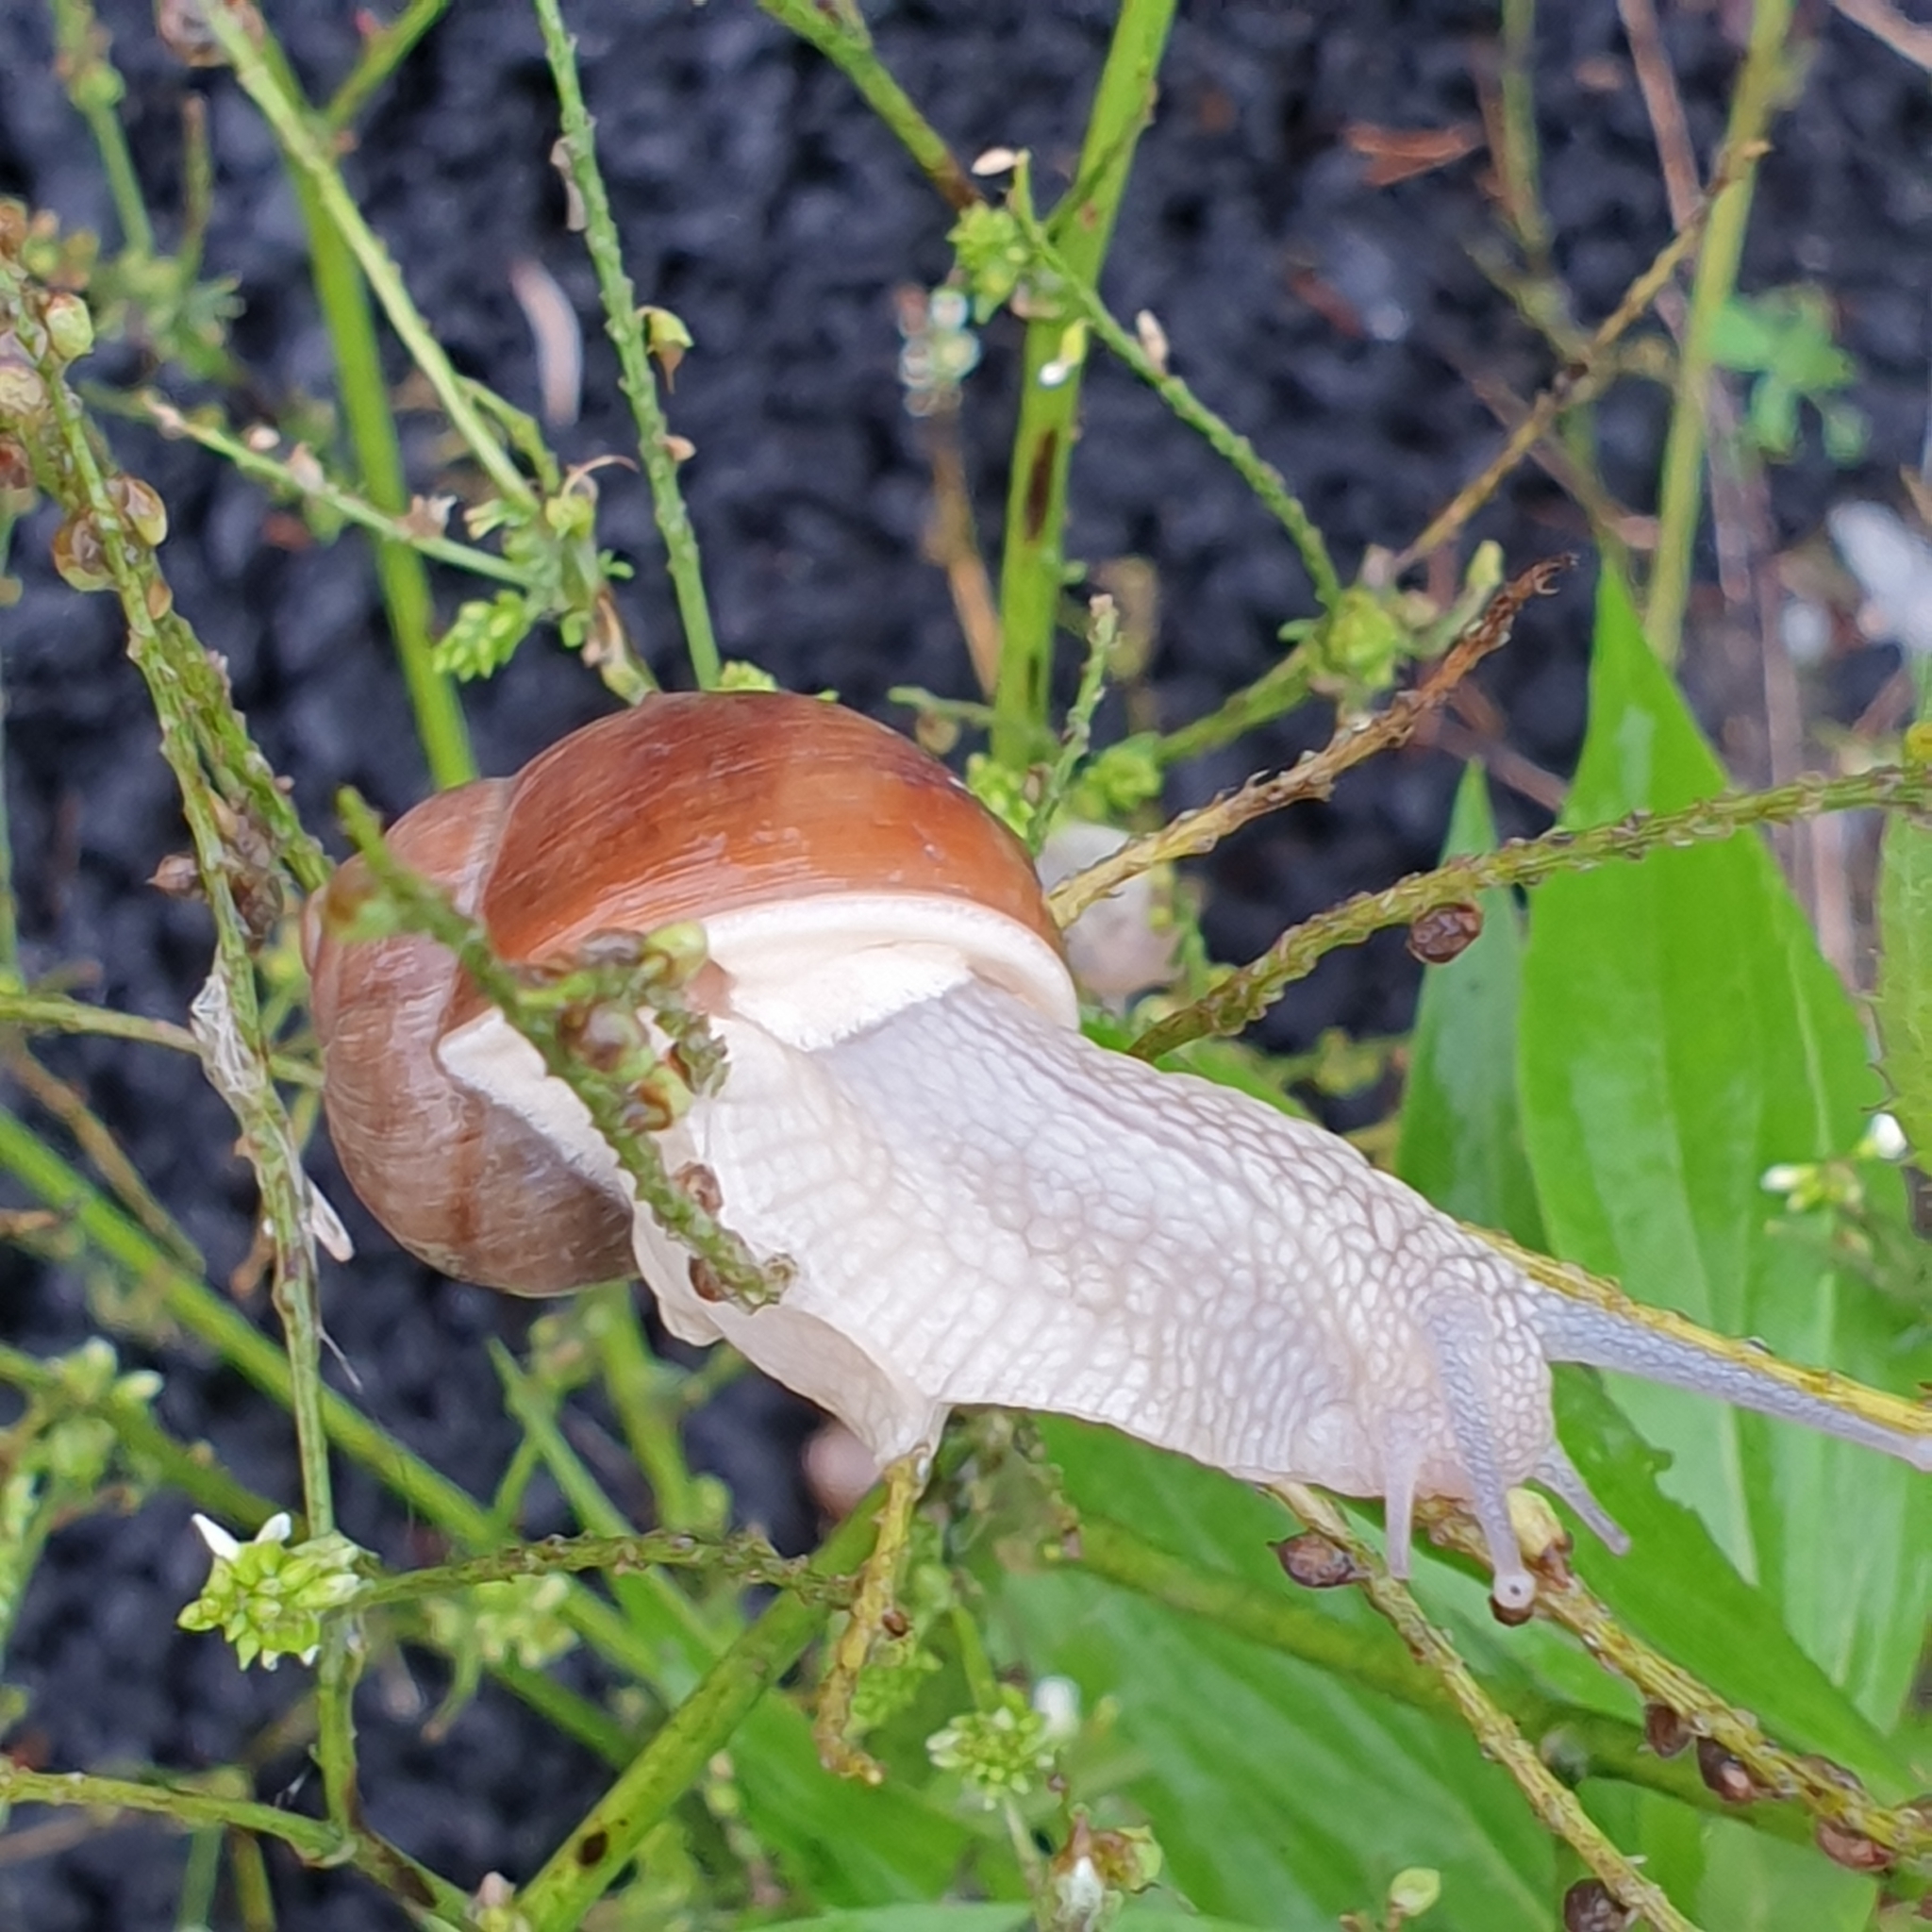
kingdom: Animalia
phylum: Mollusca
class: Gastropoda
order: Stylommatophora
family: Helicidae
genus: Helix
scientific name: Helix pomatia
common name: Roman snail
